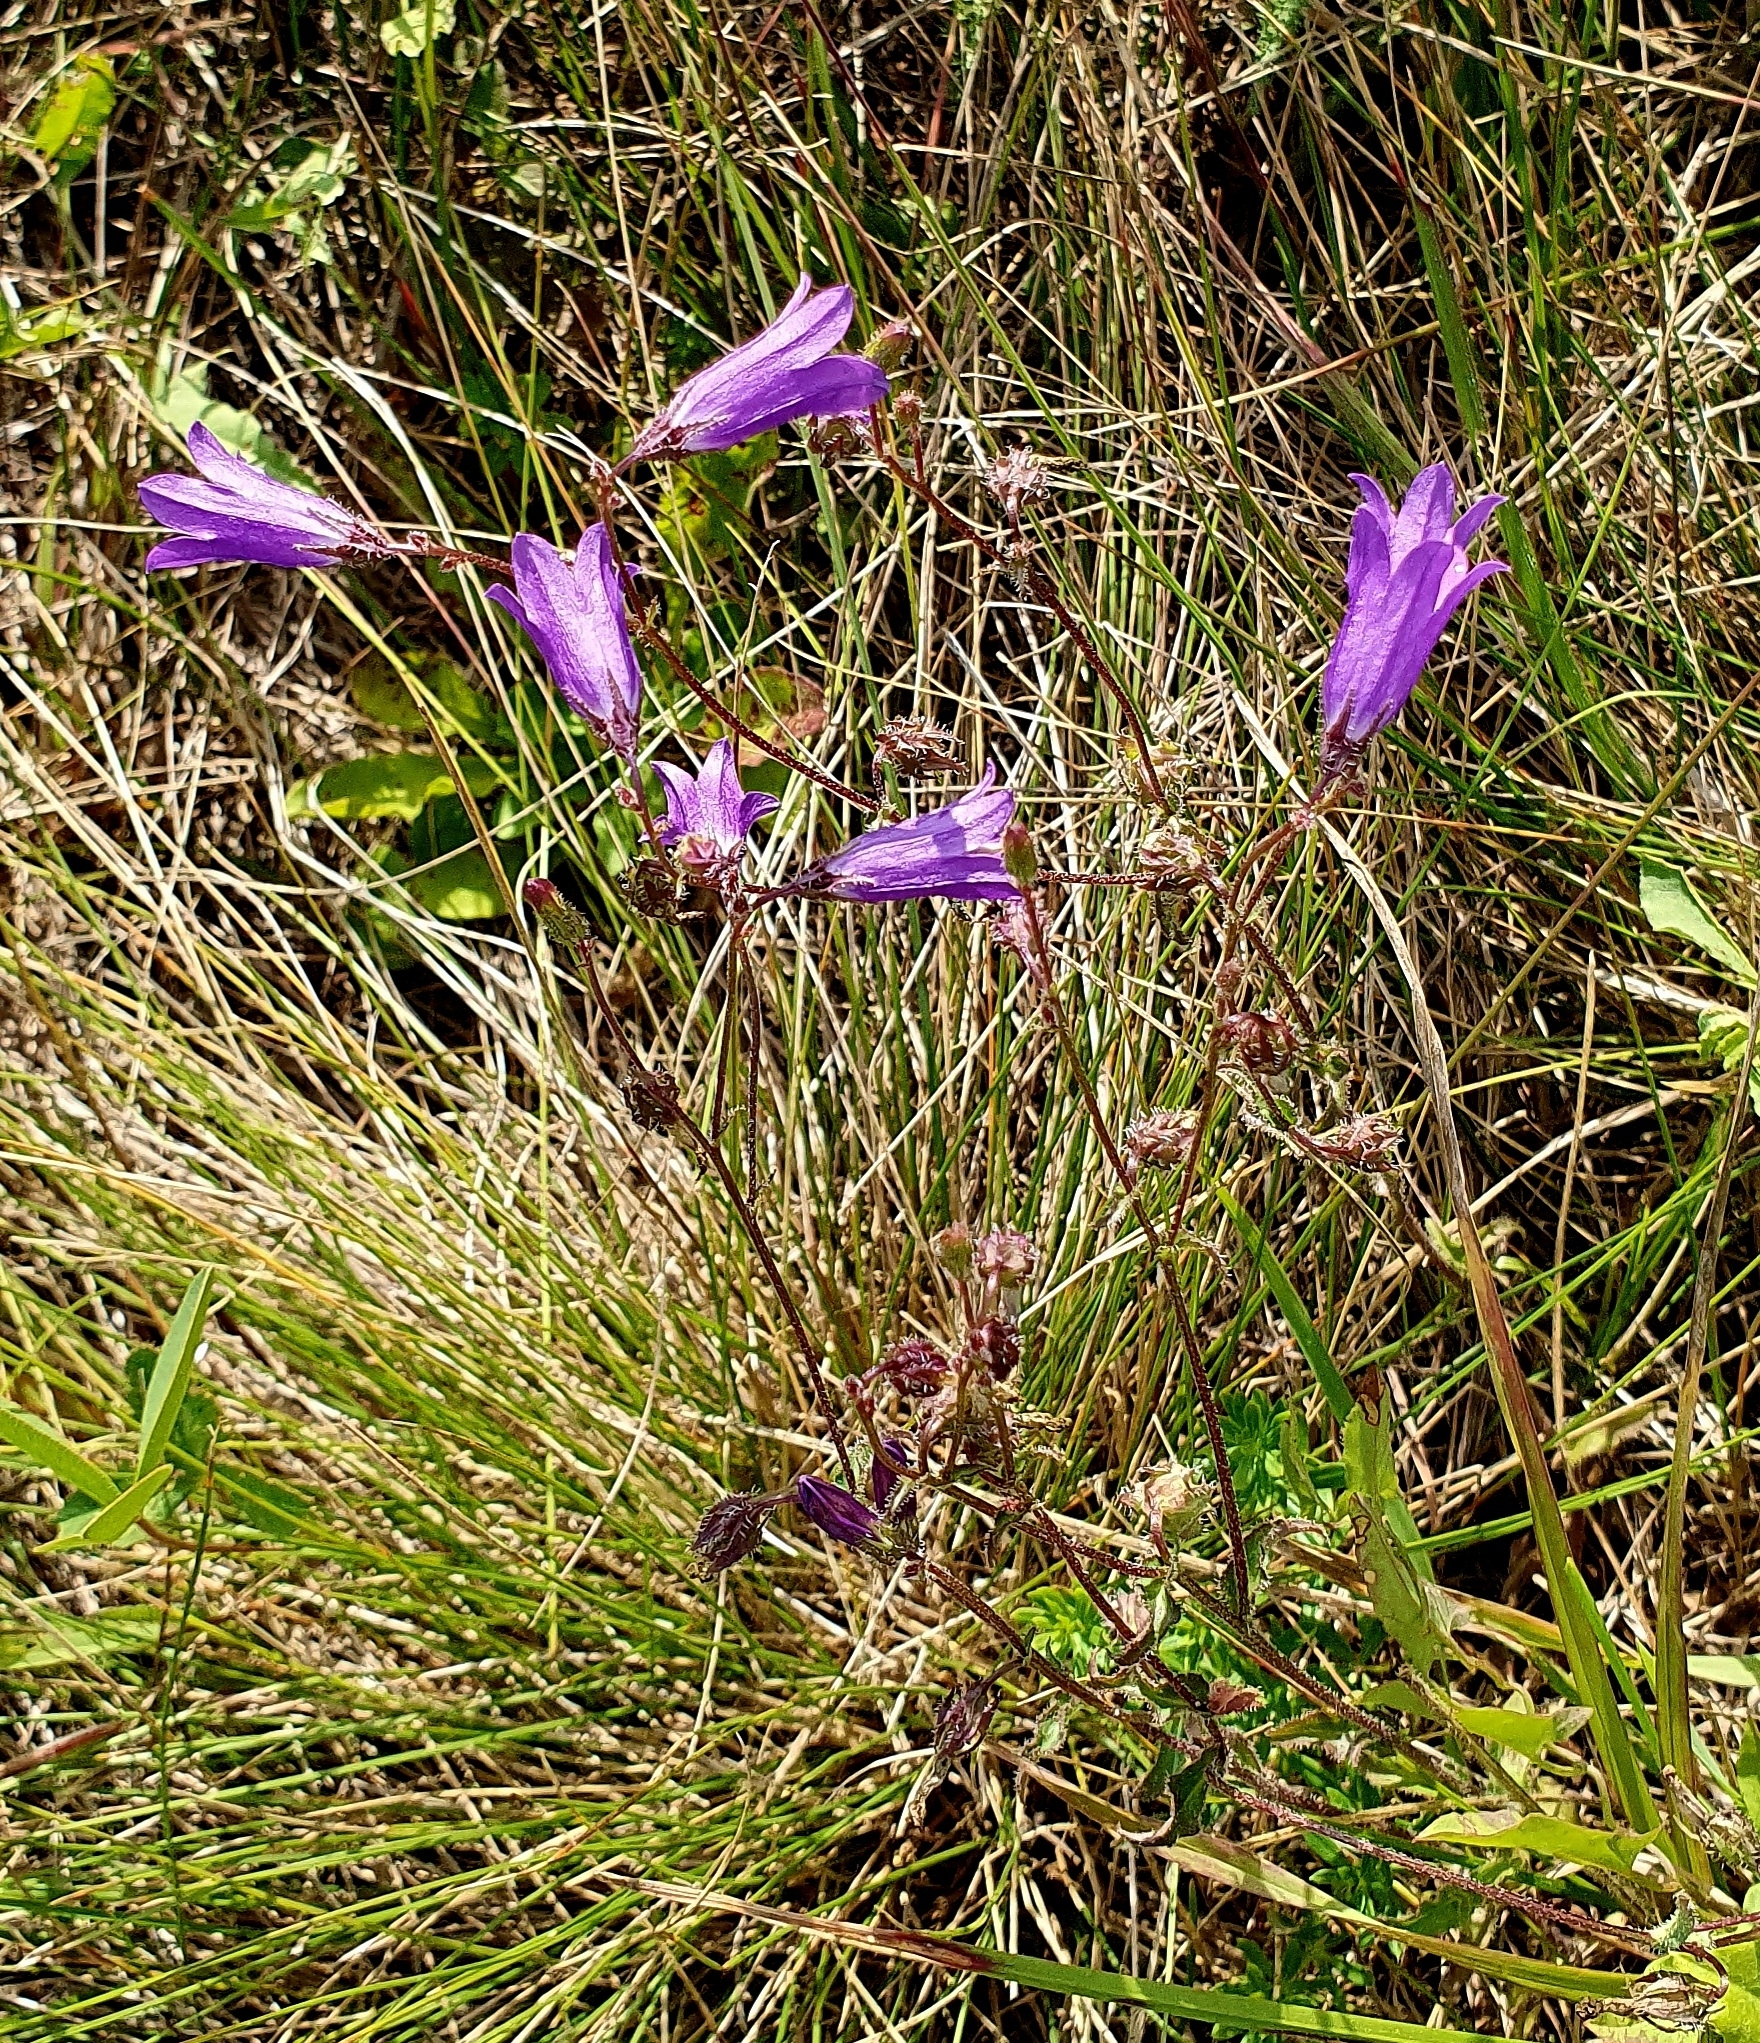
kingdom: Plantae
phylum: Tracheophyta
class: Magnoliopsida
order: Asterales
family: Campanulaceae
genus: Campanula
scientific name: Campanula sibirica
